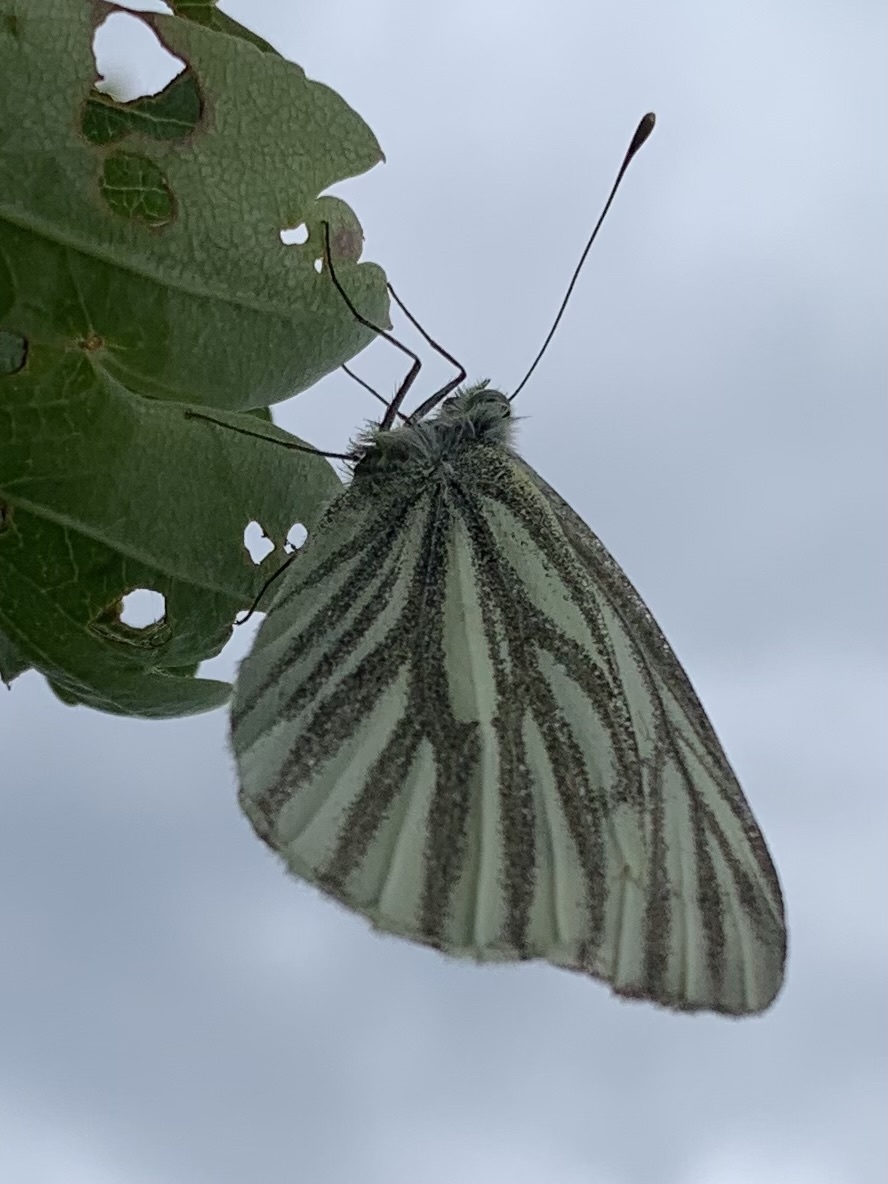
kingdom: Animalia
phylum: Arthropoda
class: Insecta
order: Lepidoptera
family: Pieridae
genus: Pieris
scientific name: Pieris napi
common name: Green-veined white
